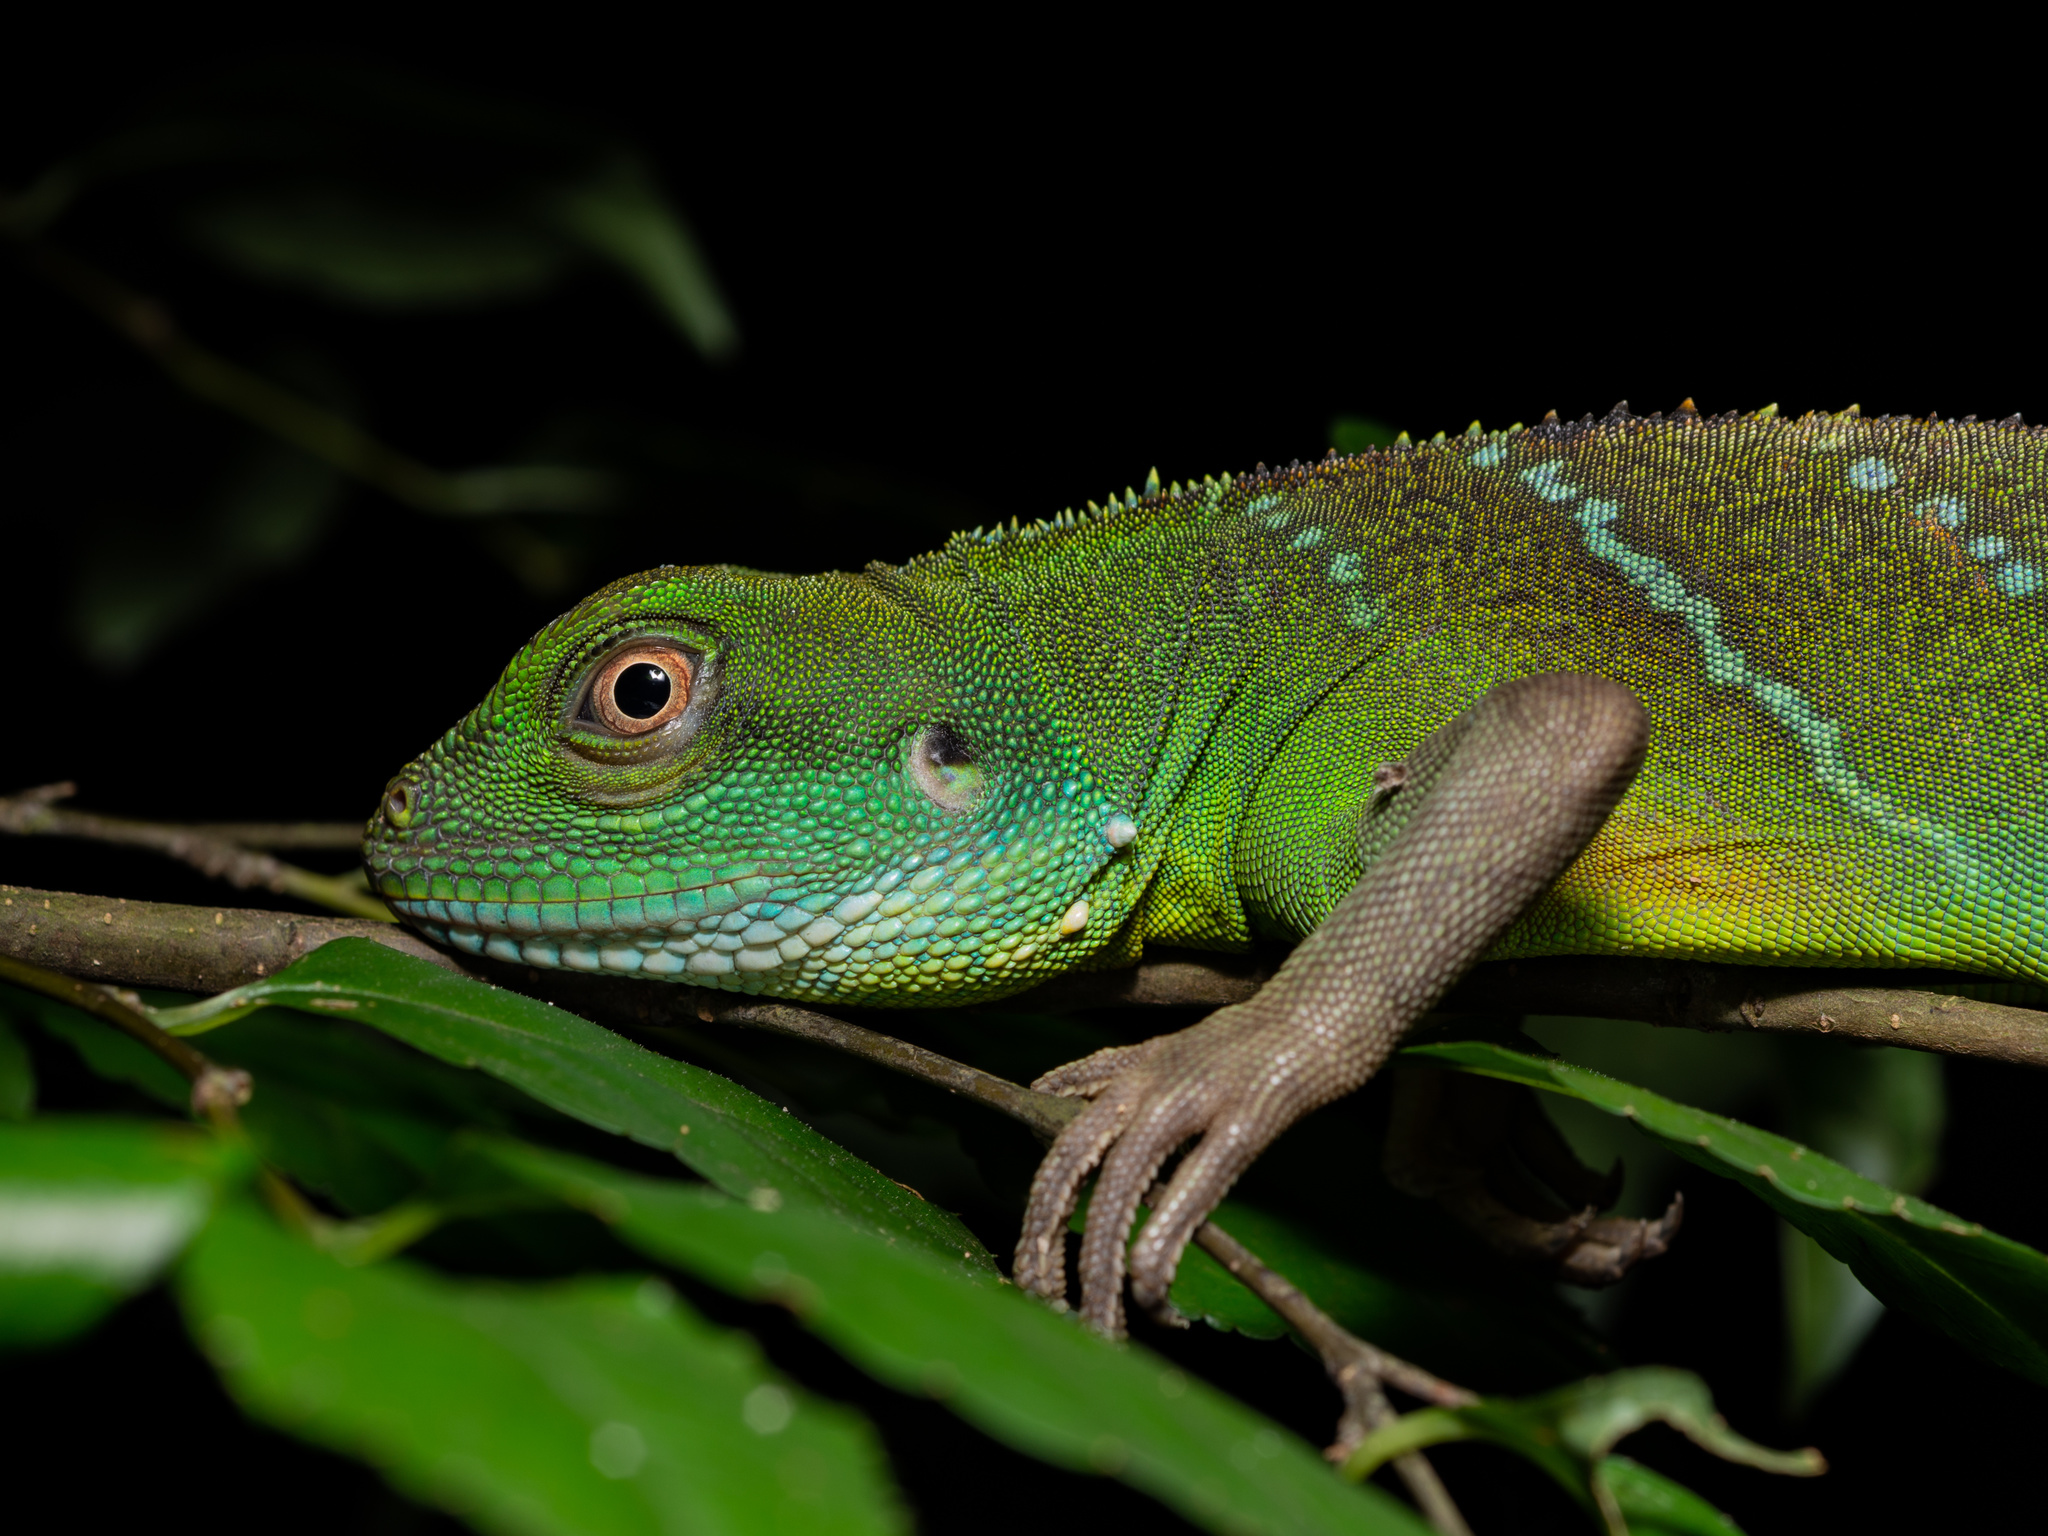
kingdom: Animalia
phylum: Chordata
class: Squamata
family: Agamidae
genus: Physignathus
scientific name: Physignathus cocincinus
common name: Asian water dragon
